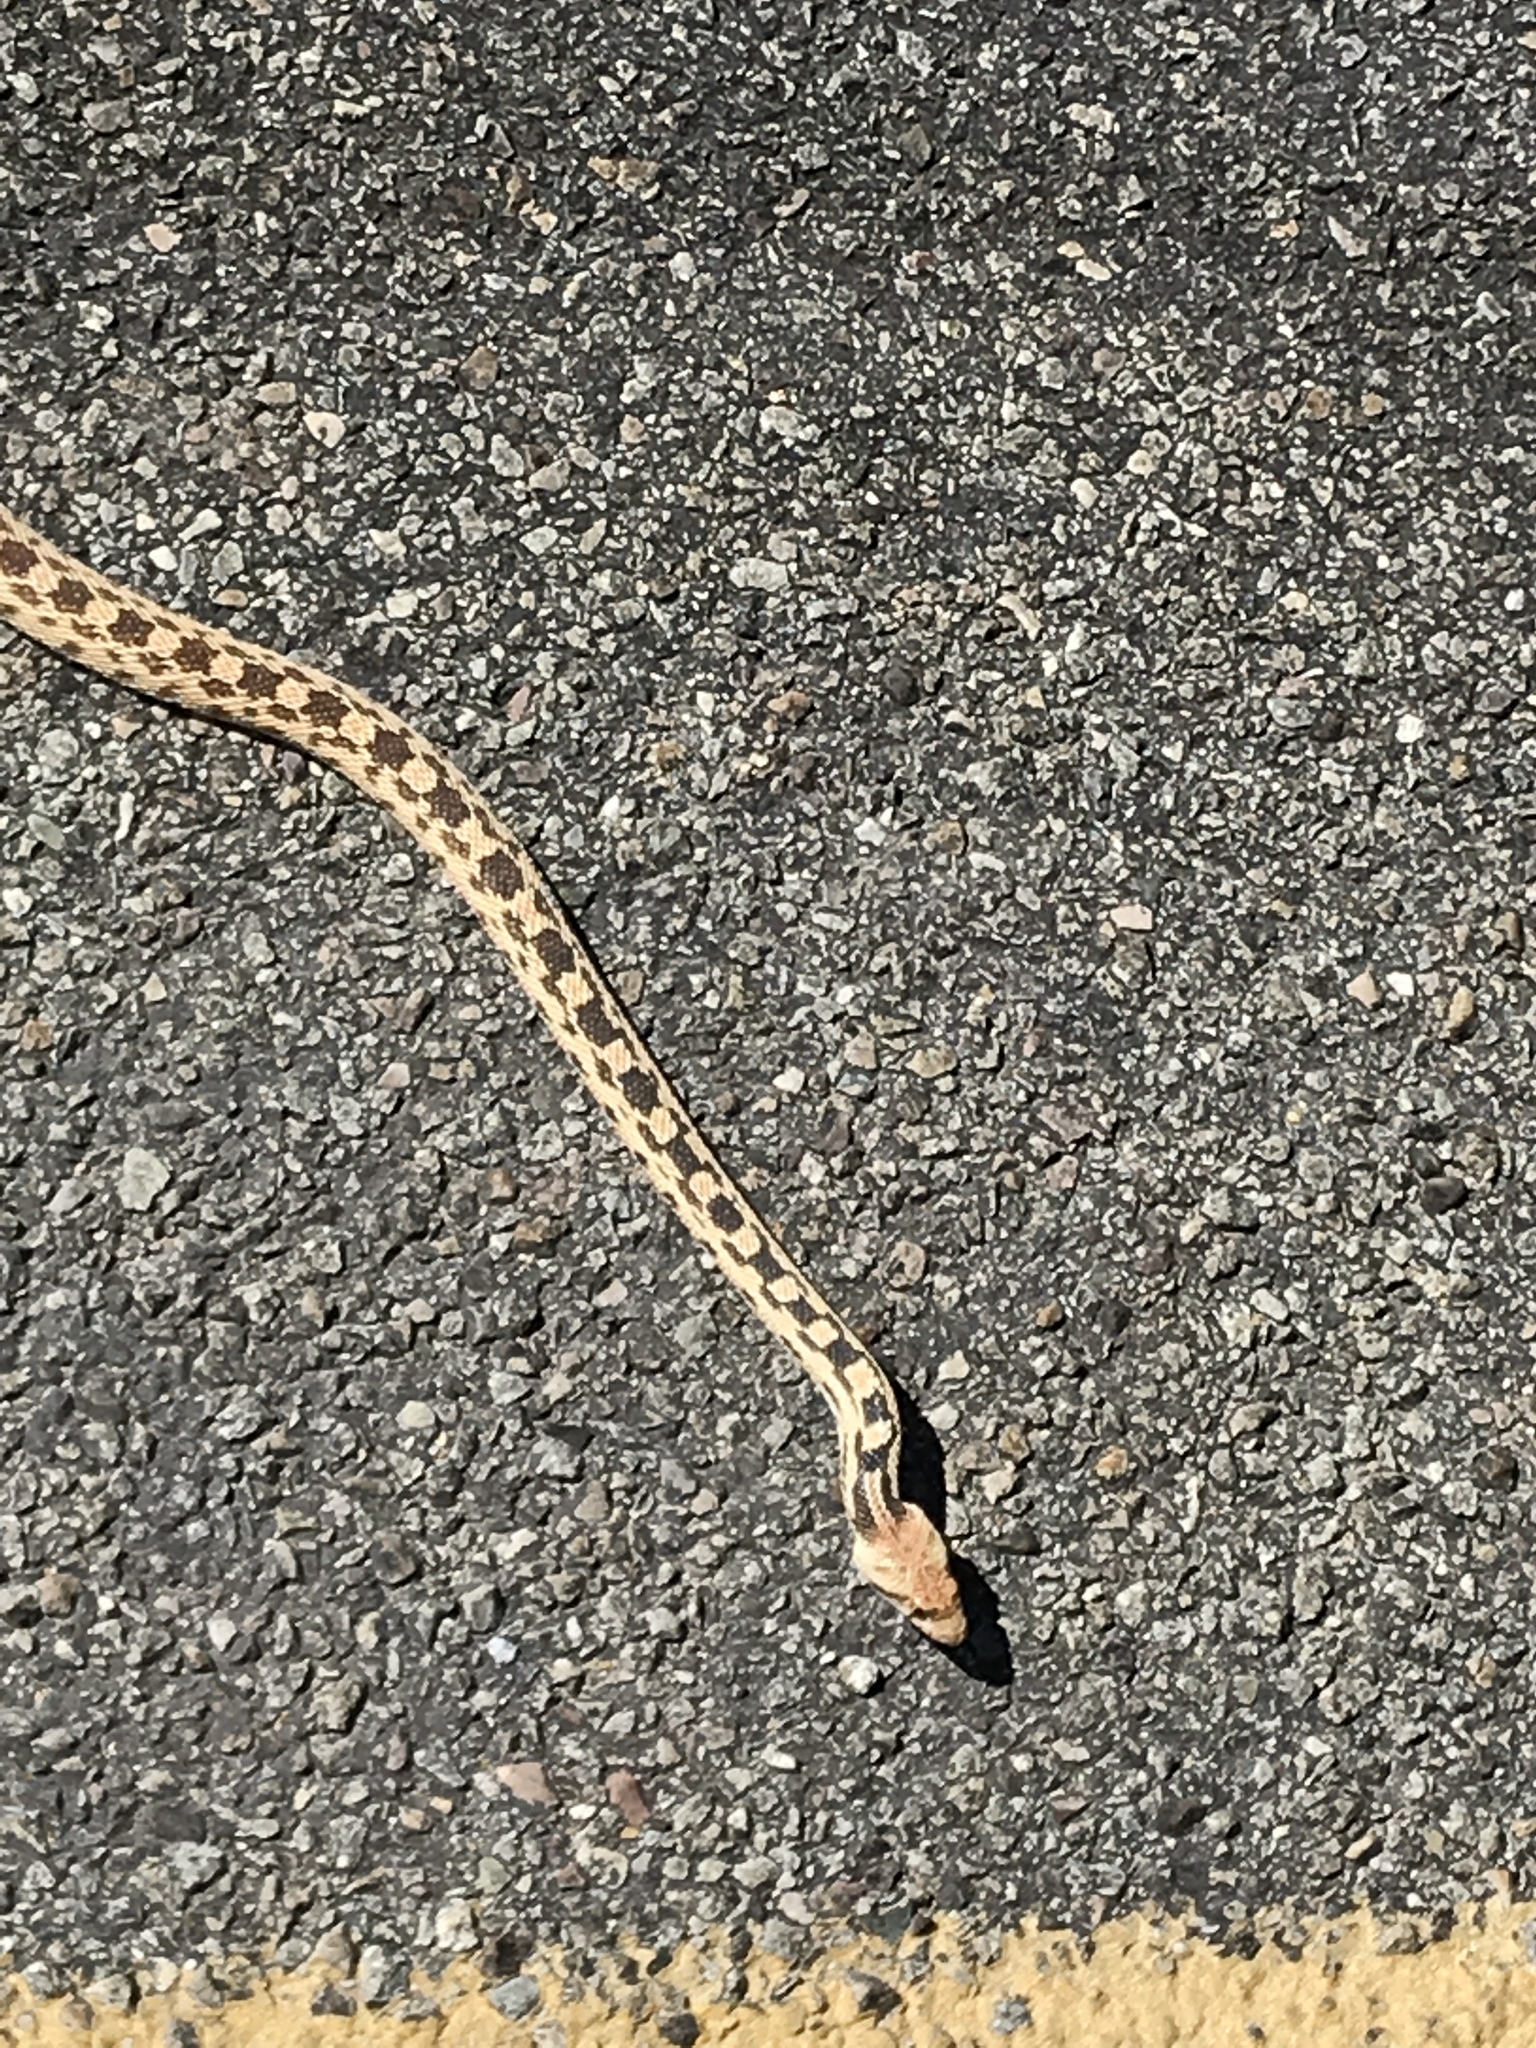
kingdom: Animalia
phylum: Chordata
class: Squamata
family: Colubridae
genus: Pituophis
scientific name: Pituophis catenifer
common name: Gopher snake
